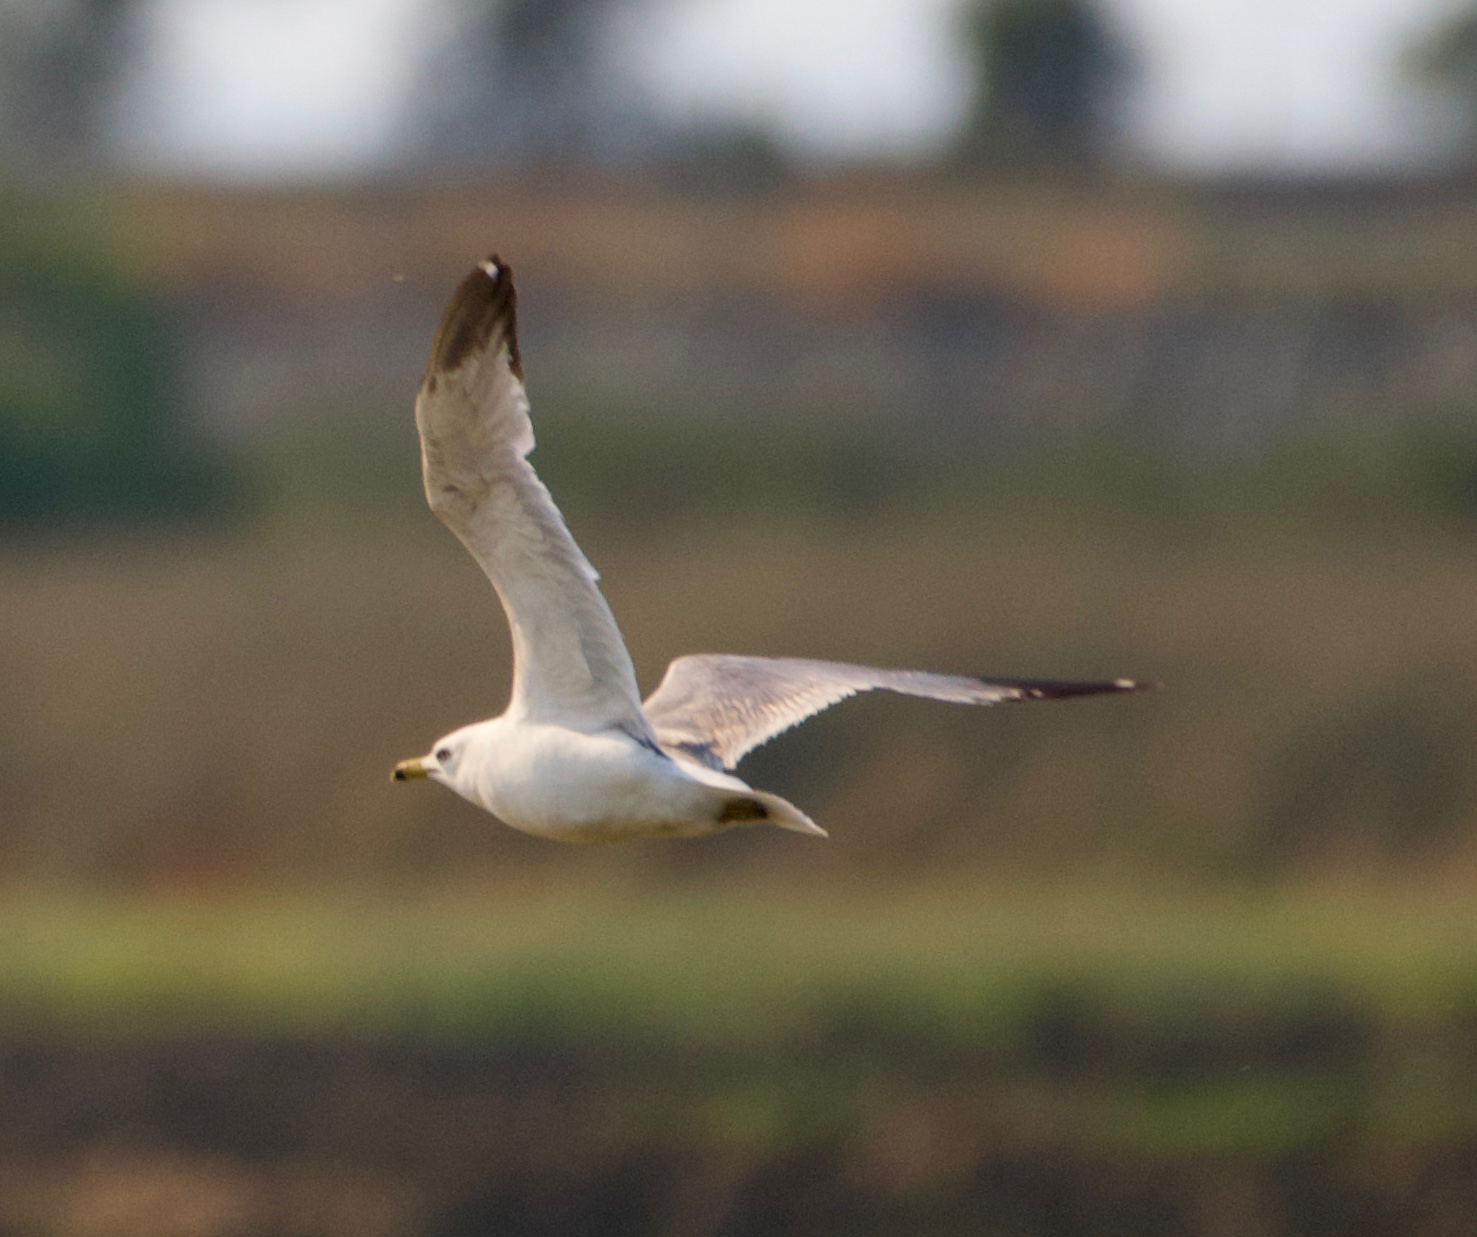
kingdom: Animalia
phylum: Chordata
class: Aves
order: Charadriiformes
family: Laridae
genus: Larus
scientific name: Larus delawarensis
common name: Ring-billed gull
